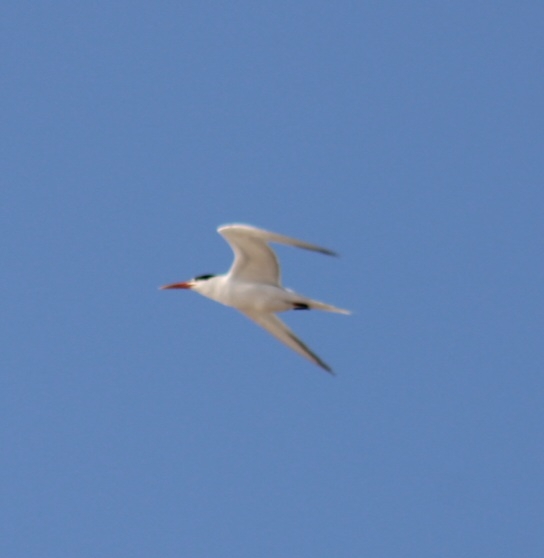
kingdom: Animalia
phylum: Chordata
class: Aves
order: Charadriiformes
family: Laridae
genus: Thalasseus
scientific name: Thalasseus maximus
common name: Royal tern
